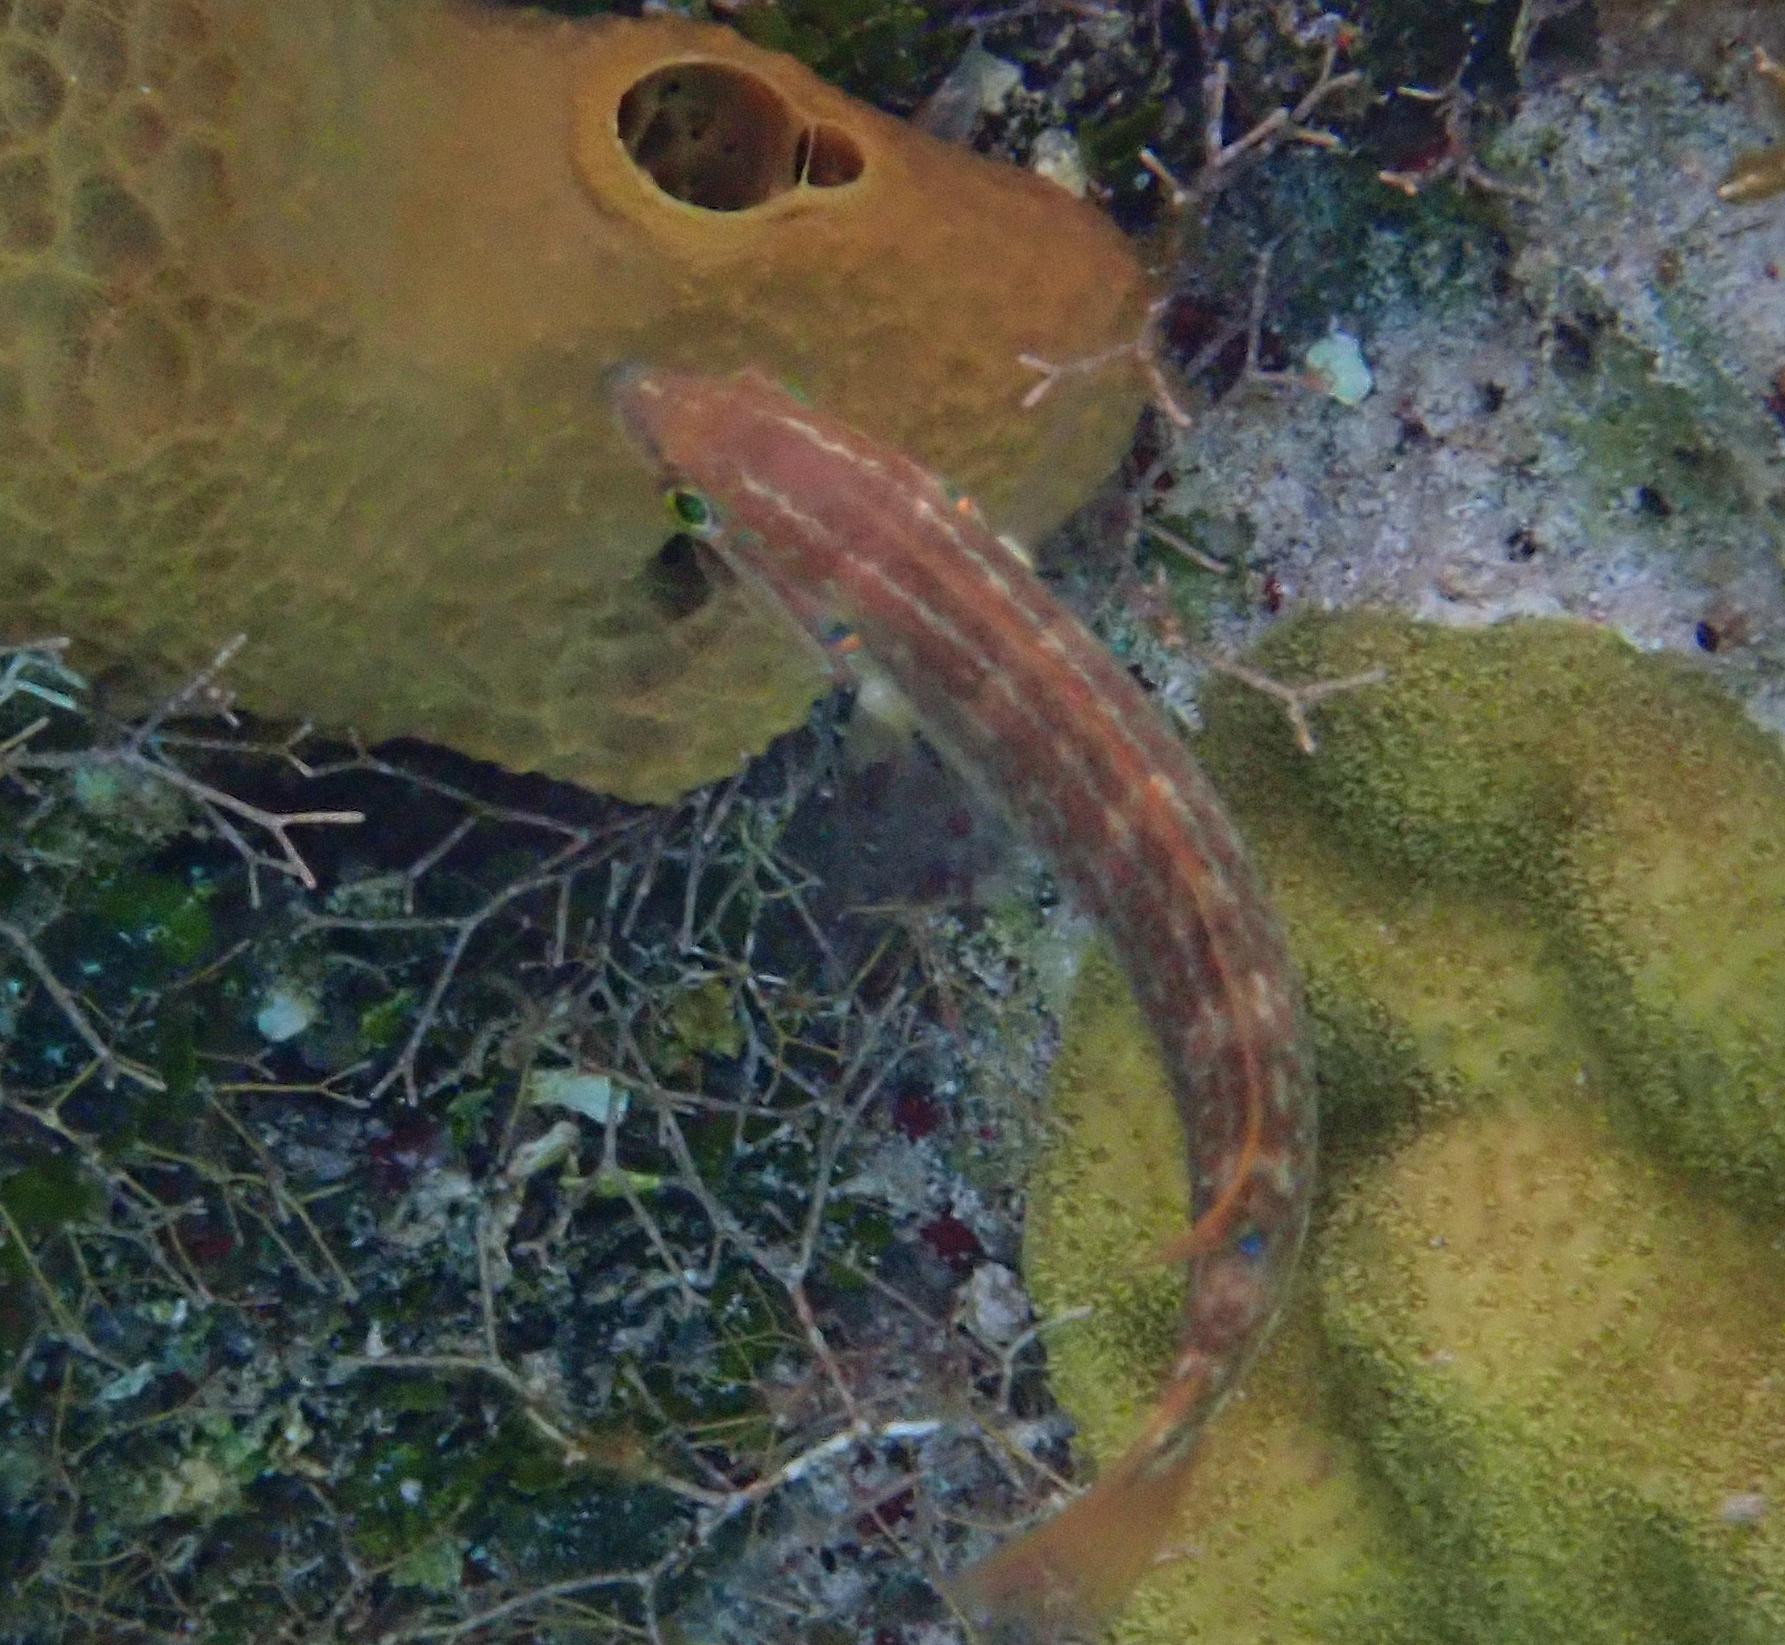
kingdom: Animalia
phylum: Chordata
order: Perciformes
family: Labridae
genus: Halichoeres
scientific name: Halichoeres bivittatus
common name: Slippery dick
